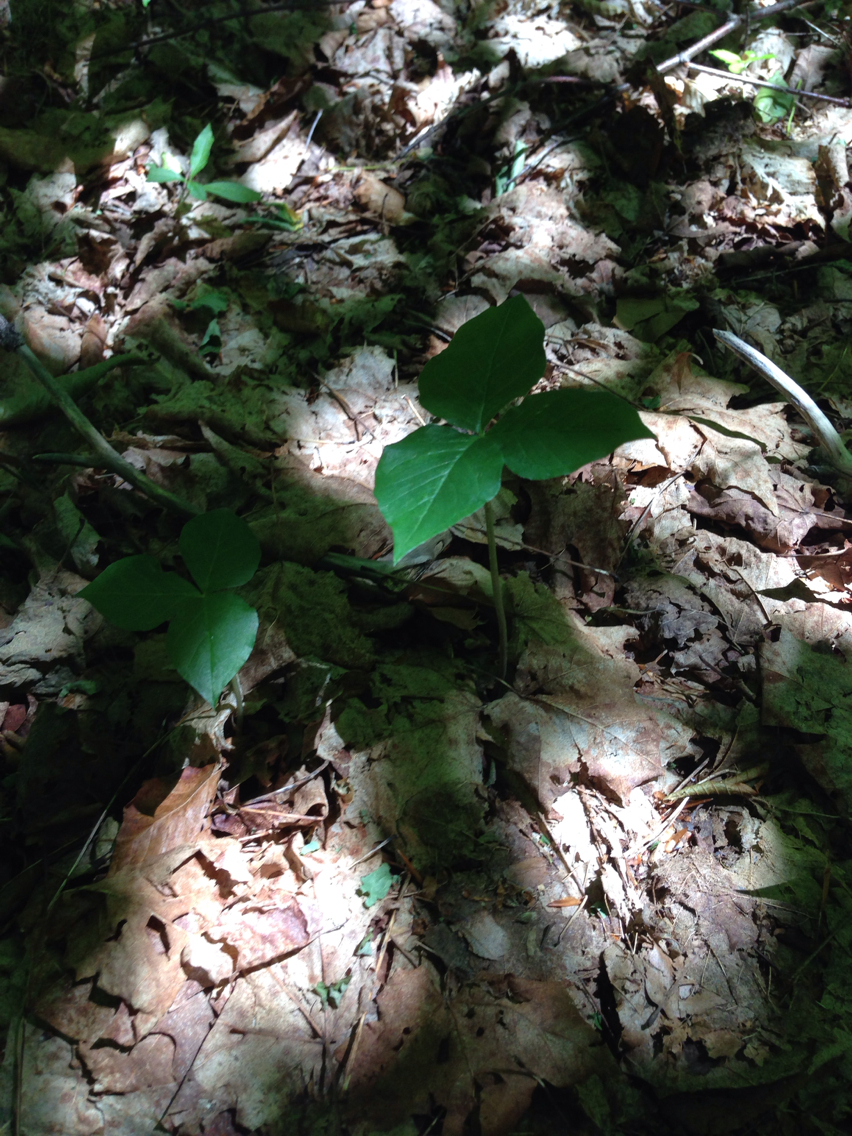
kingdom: Plantae
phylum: Tracheophyta
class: Liliopsida
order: Alismatales
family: Araceae
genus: Arisaema
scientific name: Arisaema triphyllum
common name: Jack-in-the-pulpit
